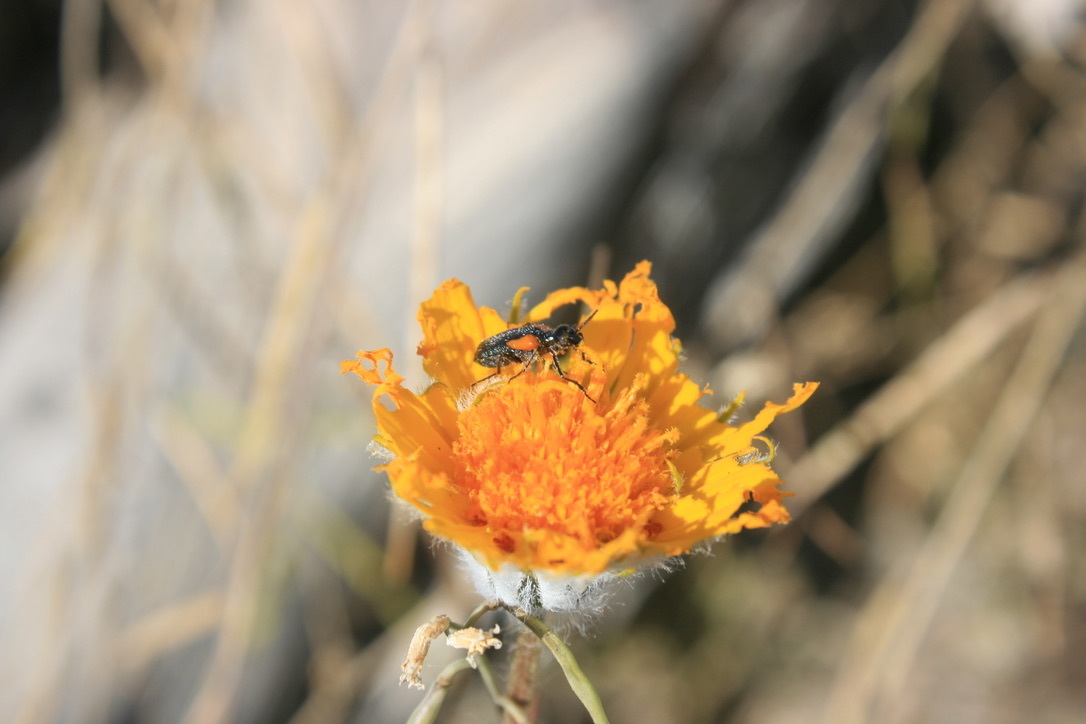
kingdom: Animalia
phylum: Arthropoda
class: Insecta
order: Coleoptera
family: Meloidae
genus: Eupompha
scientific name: Eupompha elegans
